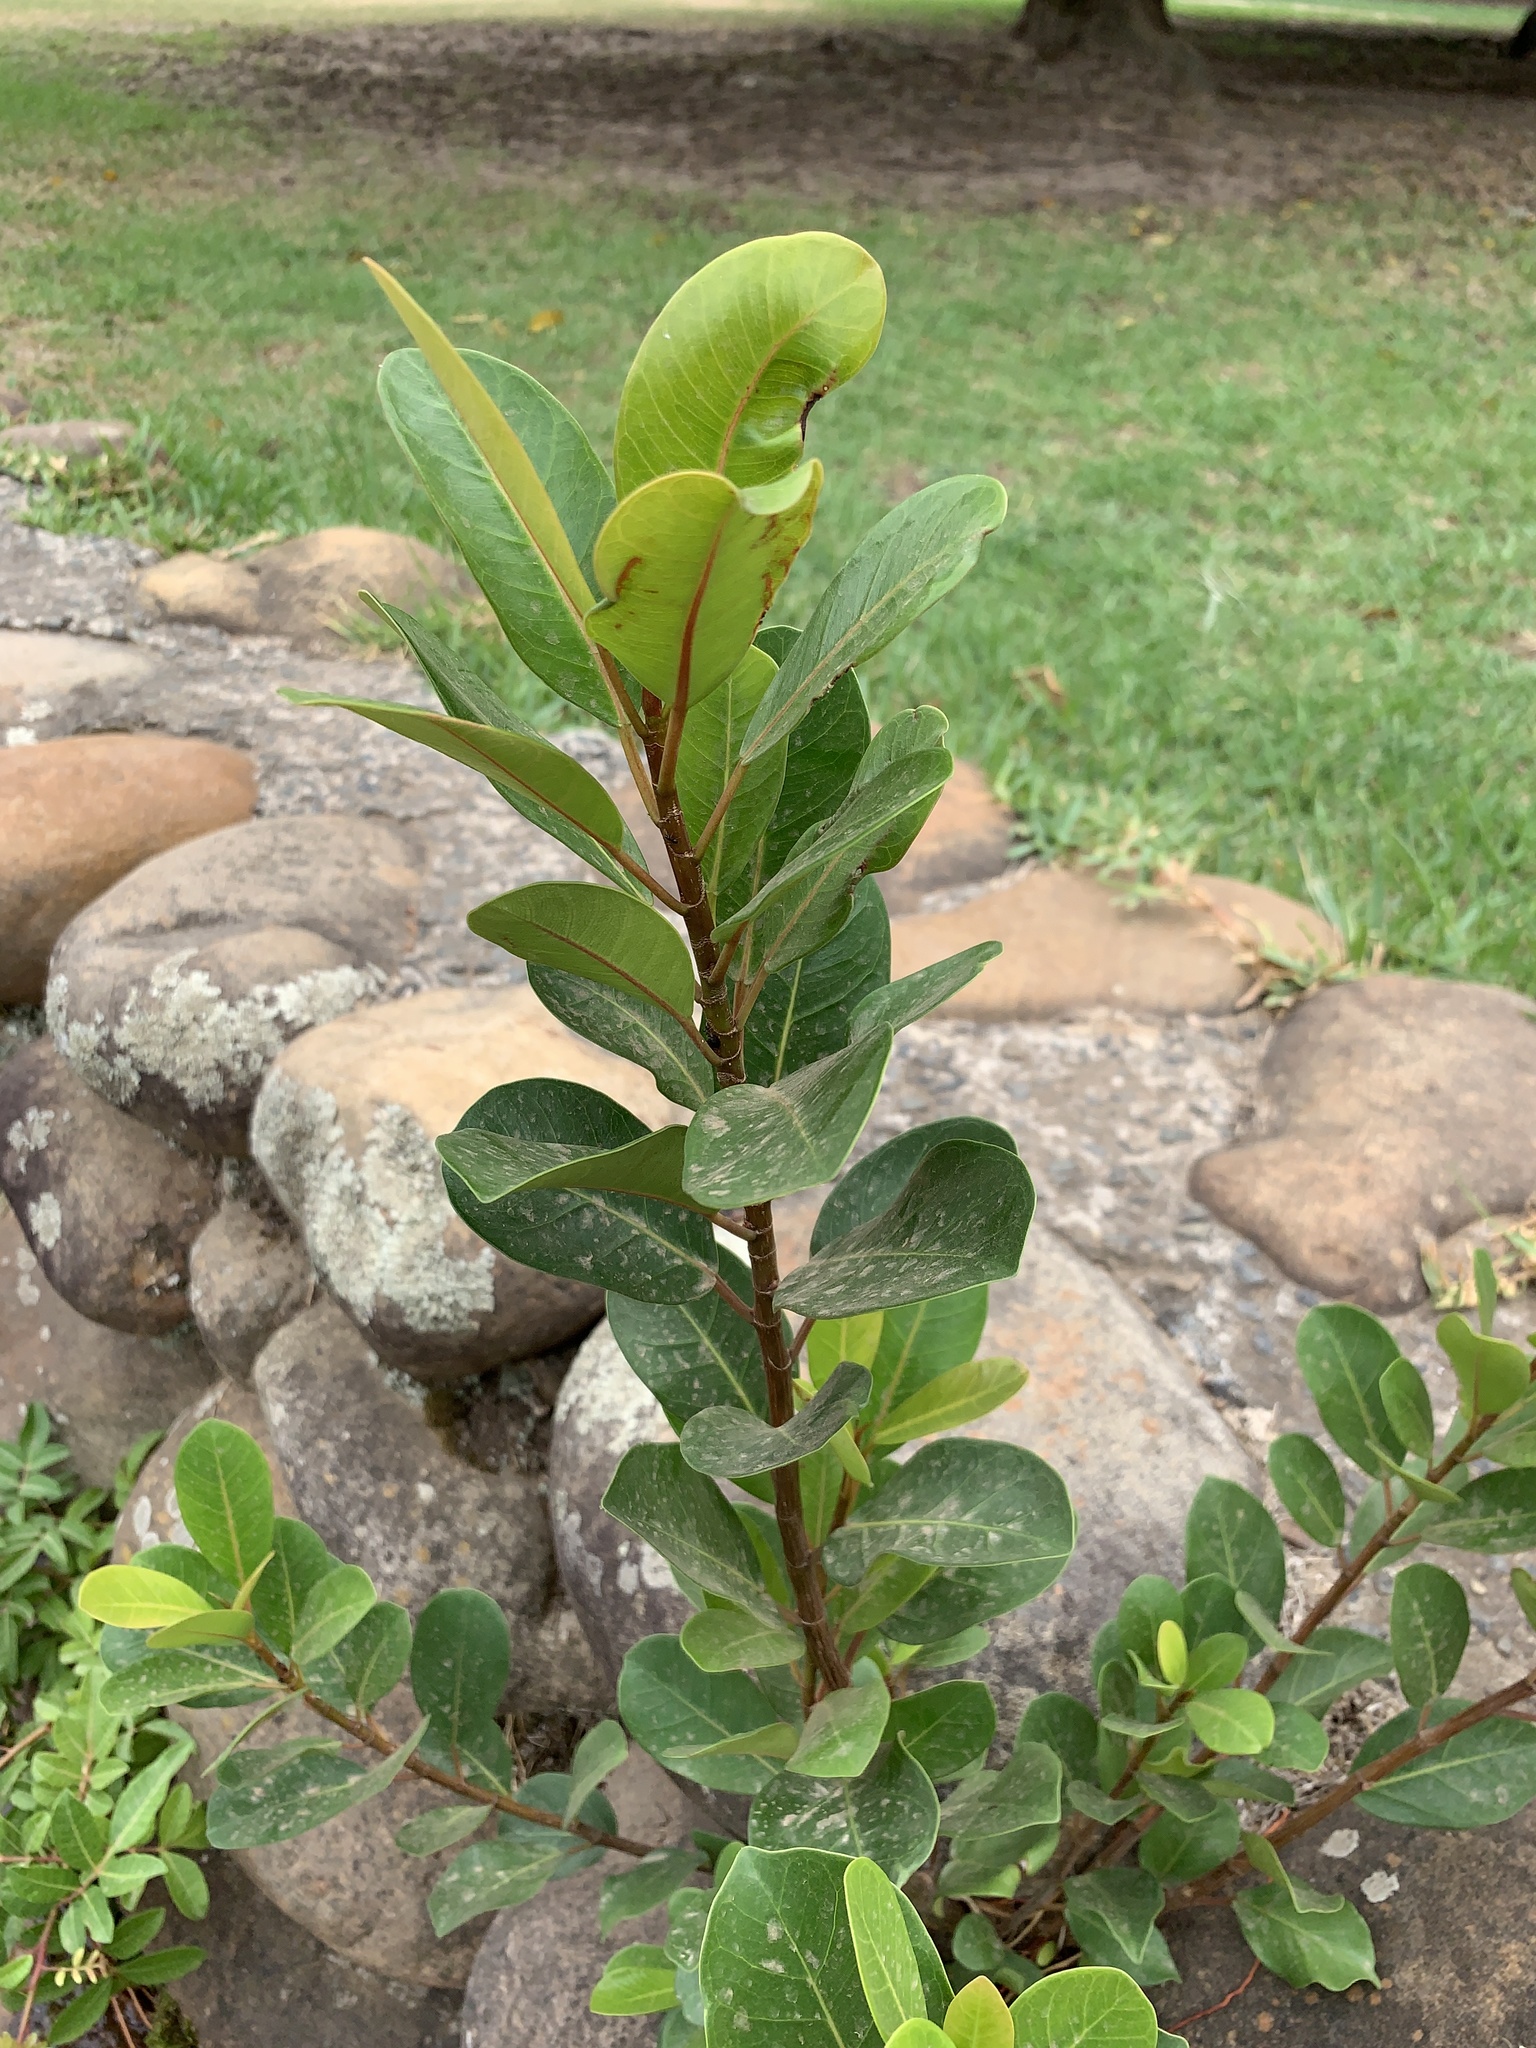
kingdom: Plantae
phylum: Tracheophyta
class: Magnoliopsida
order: Rosales
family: Moraceae
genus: Ficus
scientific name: Ficus thonningii
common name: Fig
